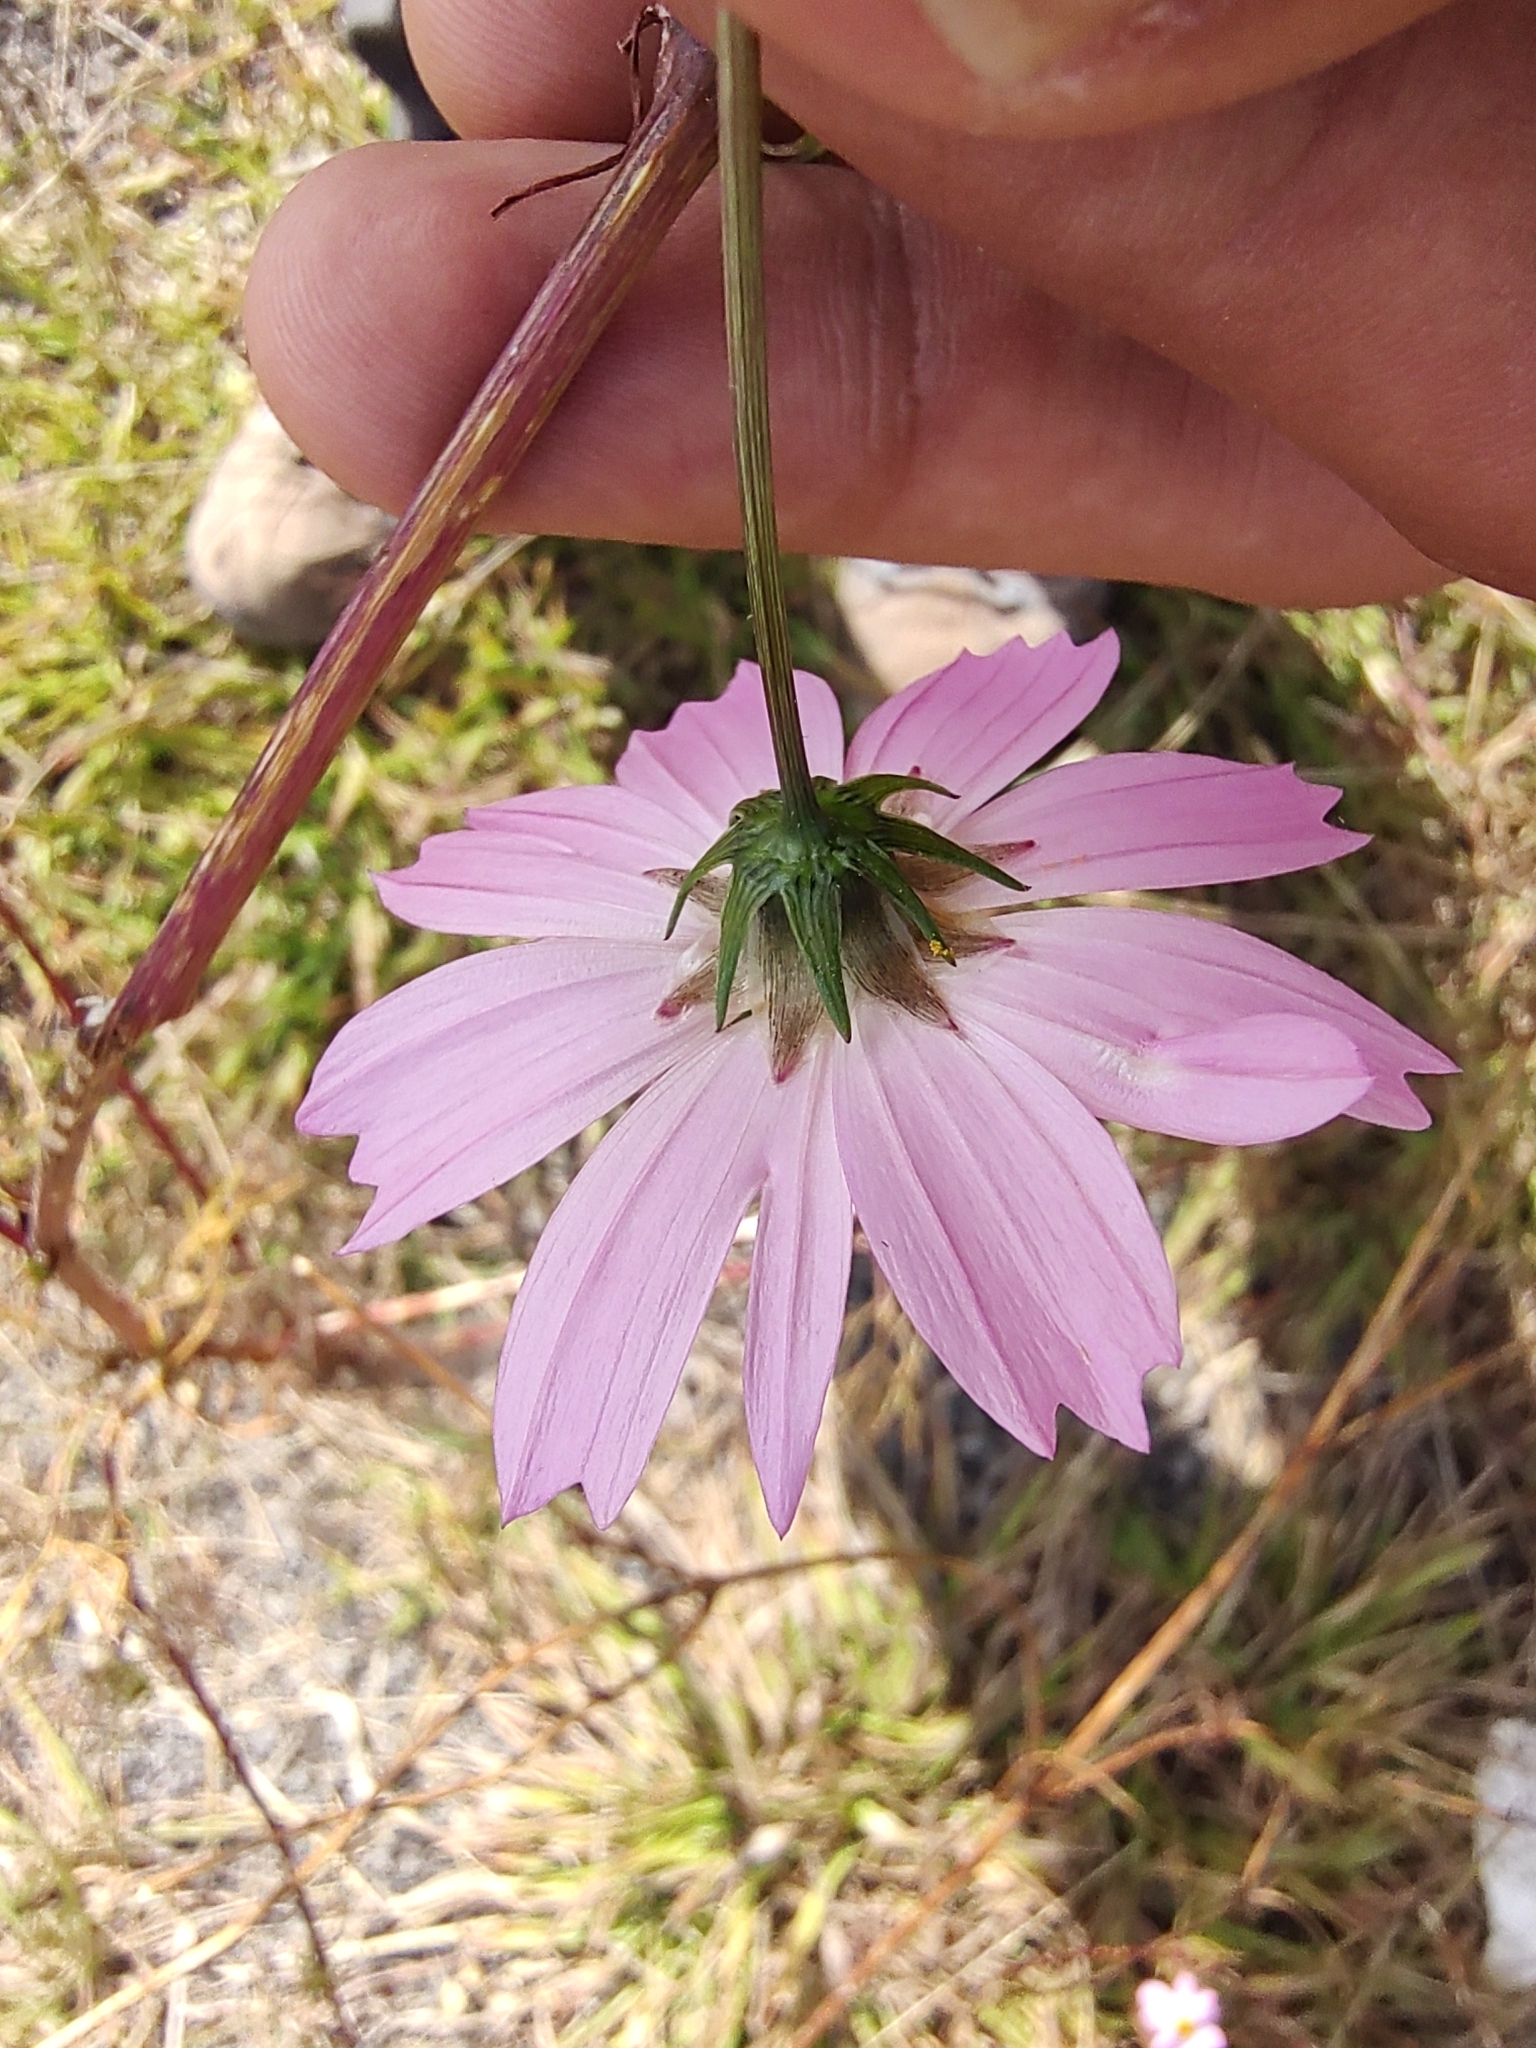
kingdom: Plantae
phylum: Tracheophyta
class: Magnoliopsida
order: Asterales
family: Asteraceae
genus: Cosmos
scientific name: Cosmos bipinnatus
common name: Garden cosmos
